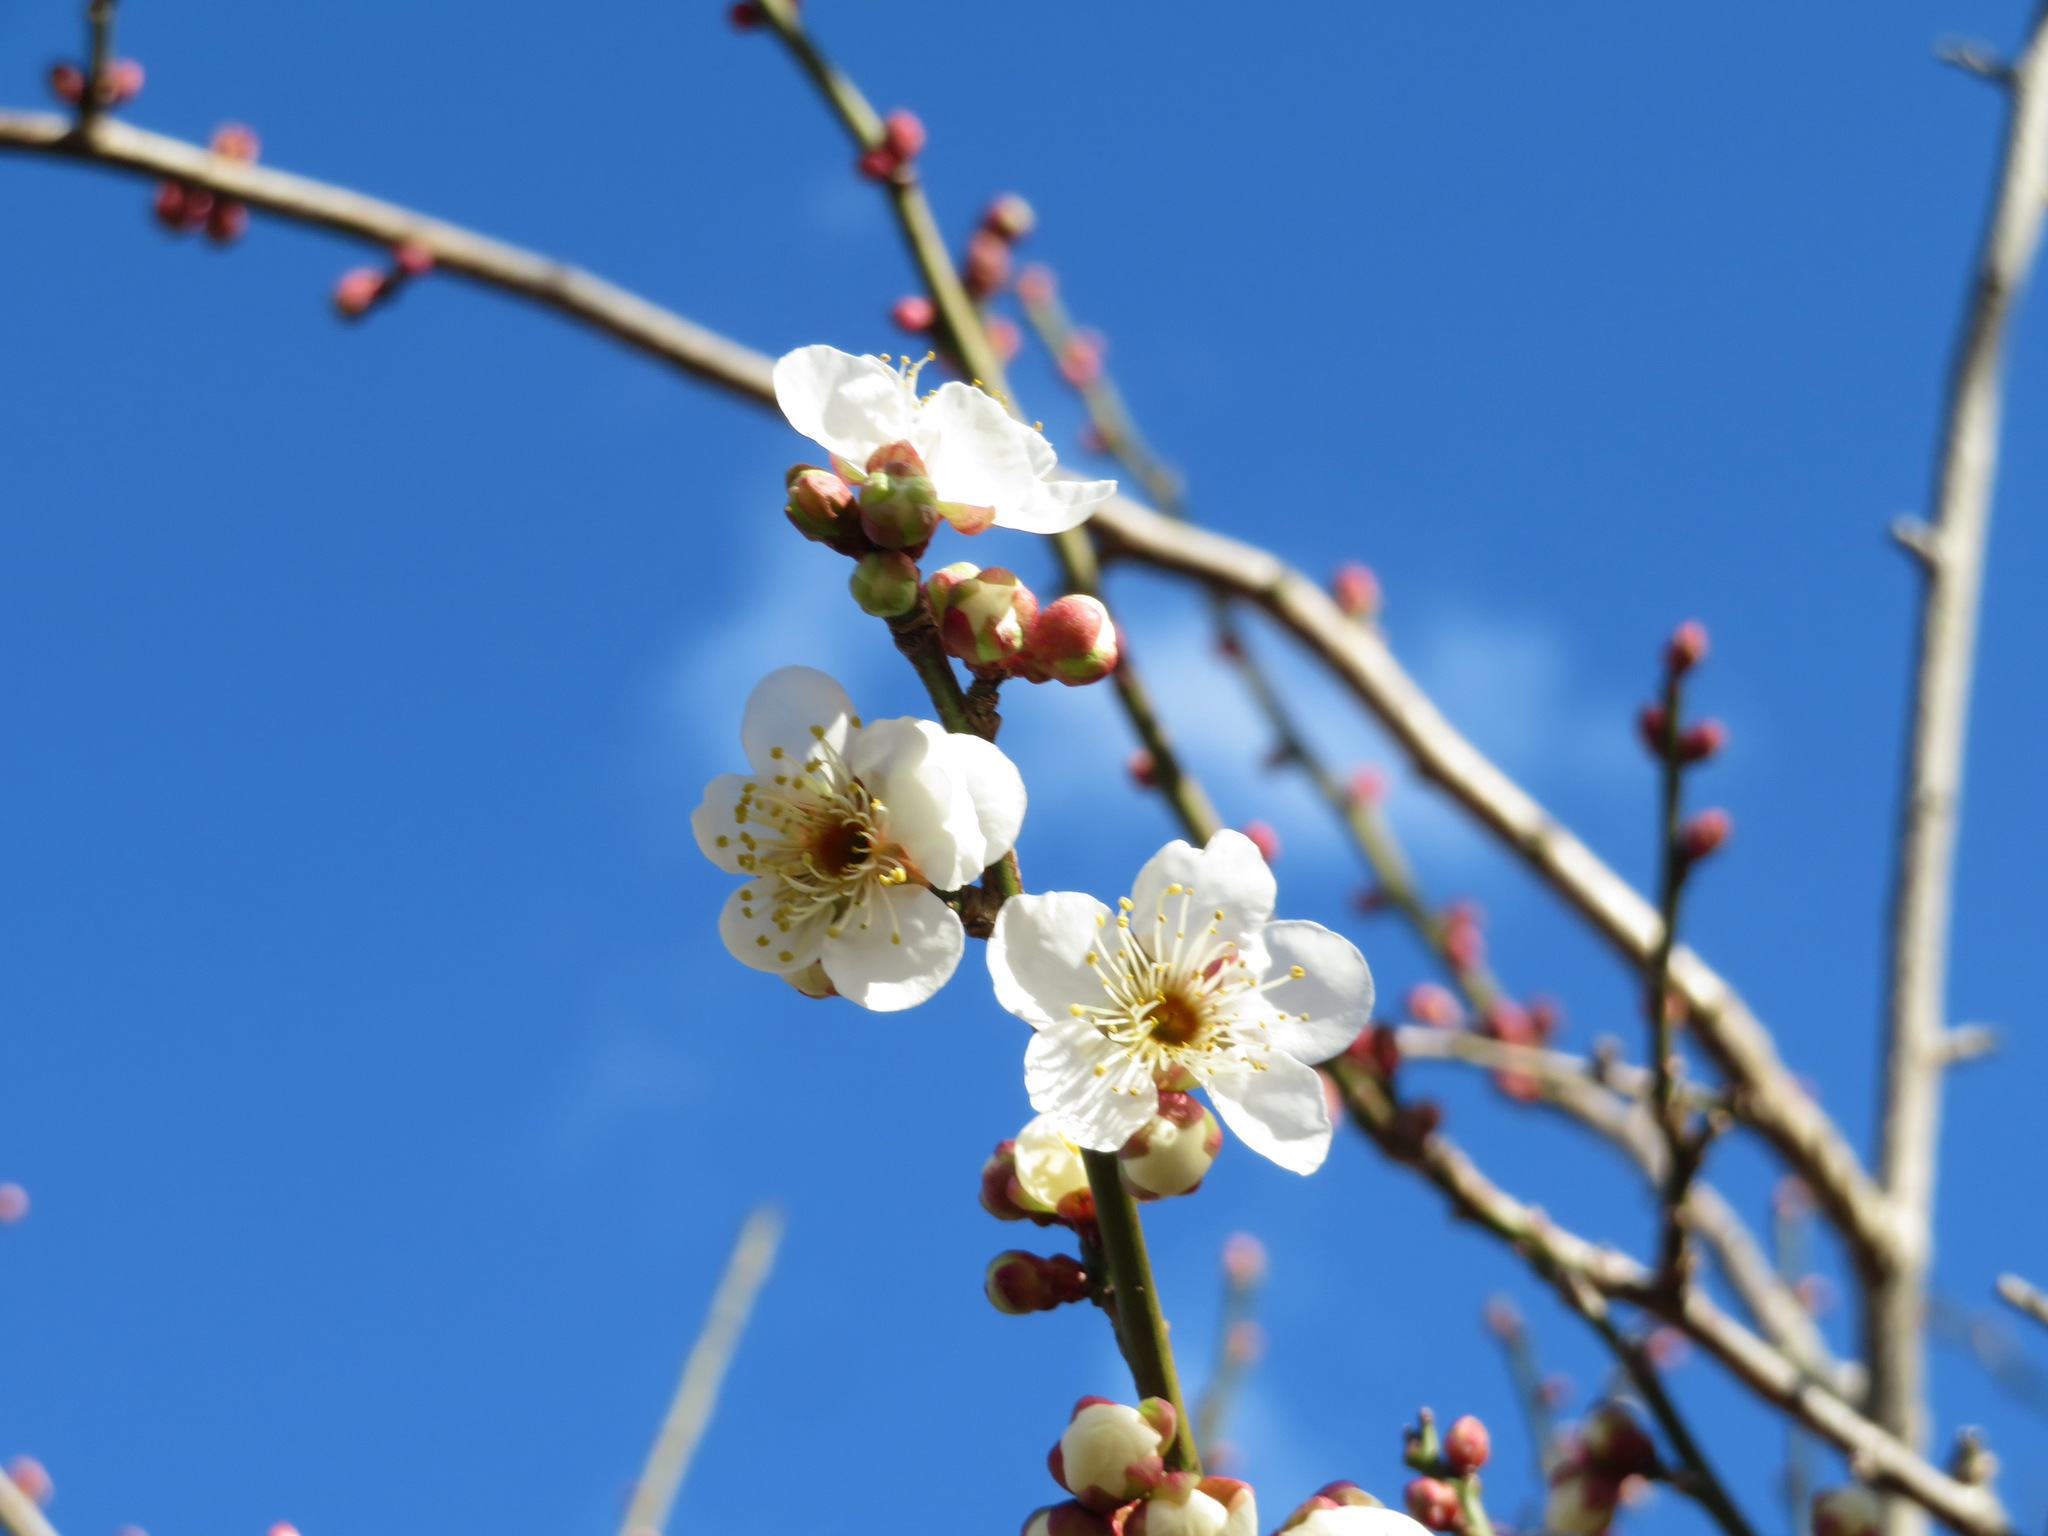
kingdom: Plantae
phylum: Tracheophyta
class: Magnoliopsida
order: Rosales
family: Rosaceae
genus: Prunus
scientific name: Prunus mume
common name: Japanese apricot
